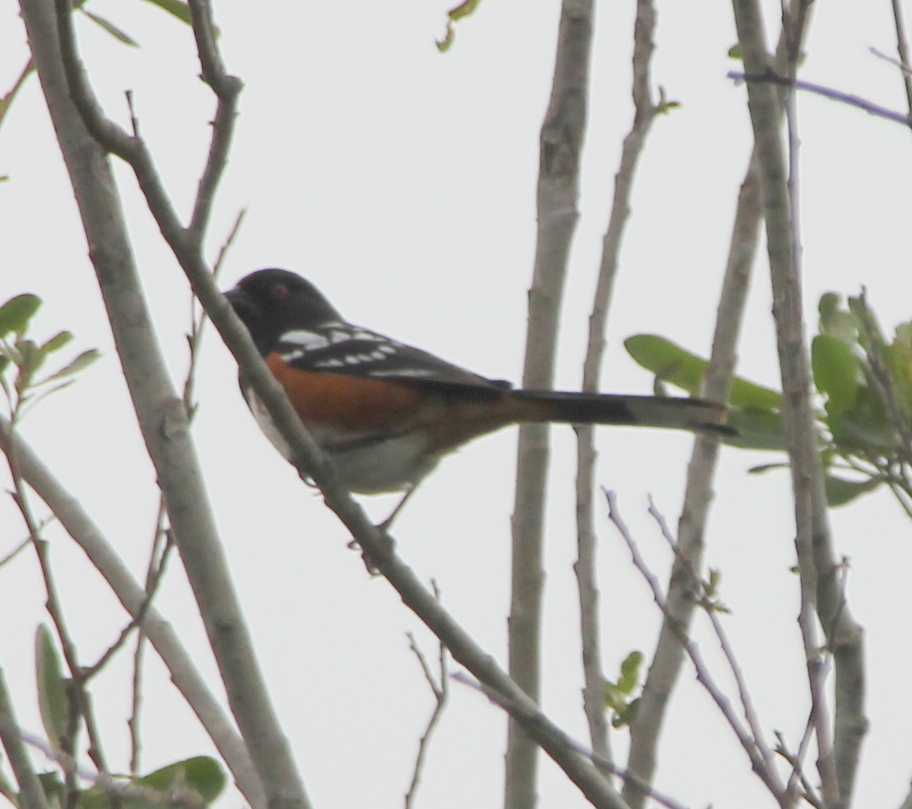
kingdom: Animalia
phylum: Chordata
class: Aves
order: Passeriformes
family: Passerellidae
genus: Pipilo
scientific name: Pipilo maculatus
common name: Spotted towhee
